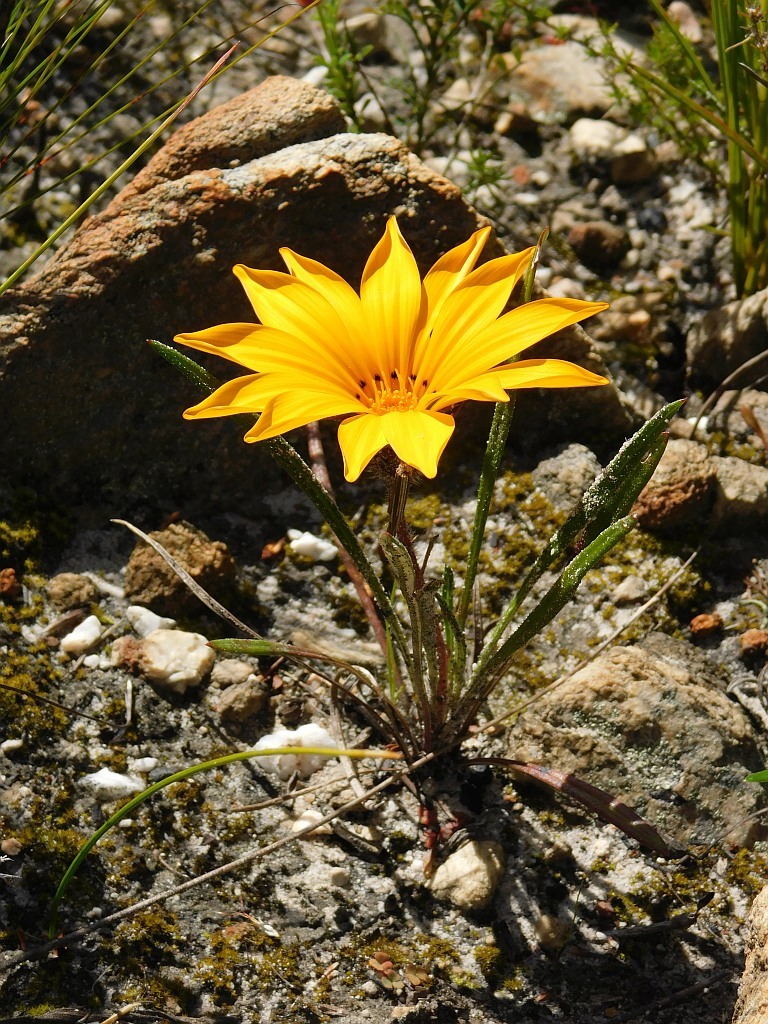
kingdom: Plantae
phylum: Tracheophyta
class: Magnoliopsida
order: Asterales
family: Asteraceae
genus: Gazania
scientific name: Gazania serrata
